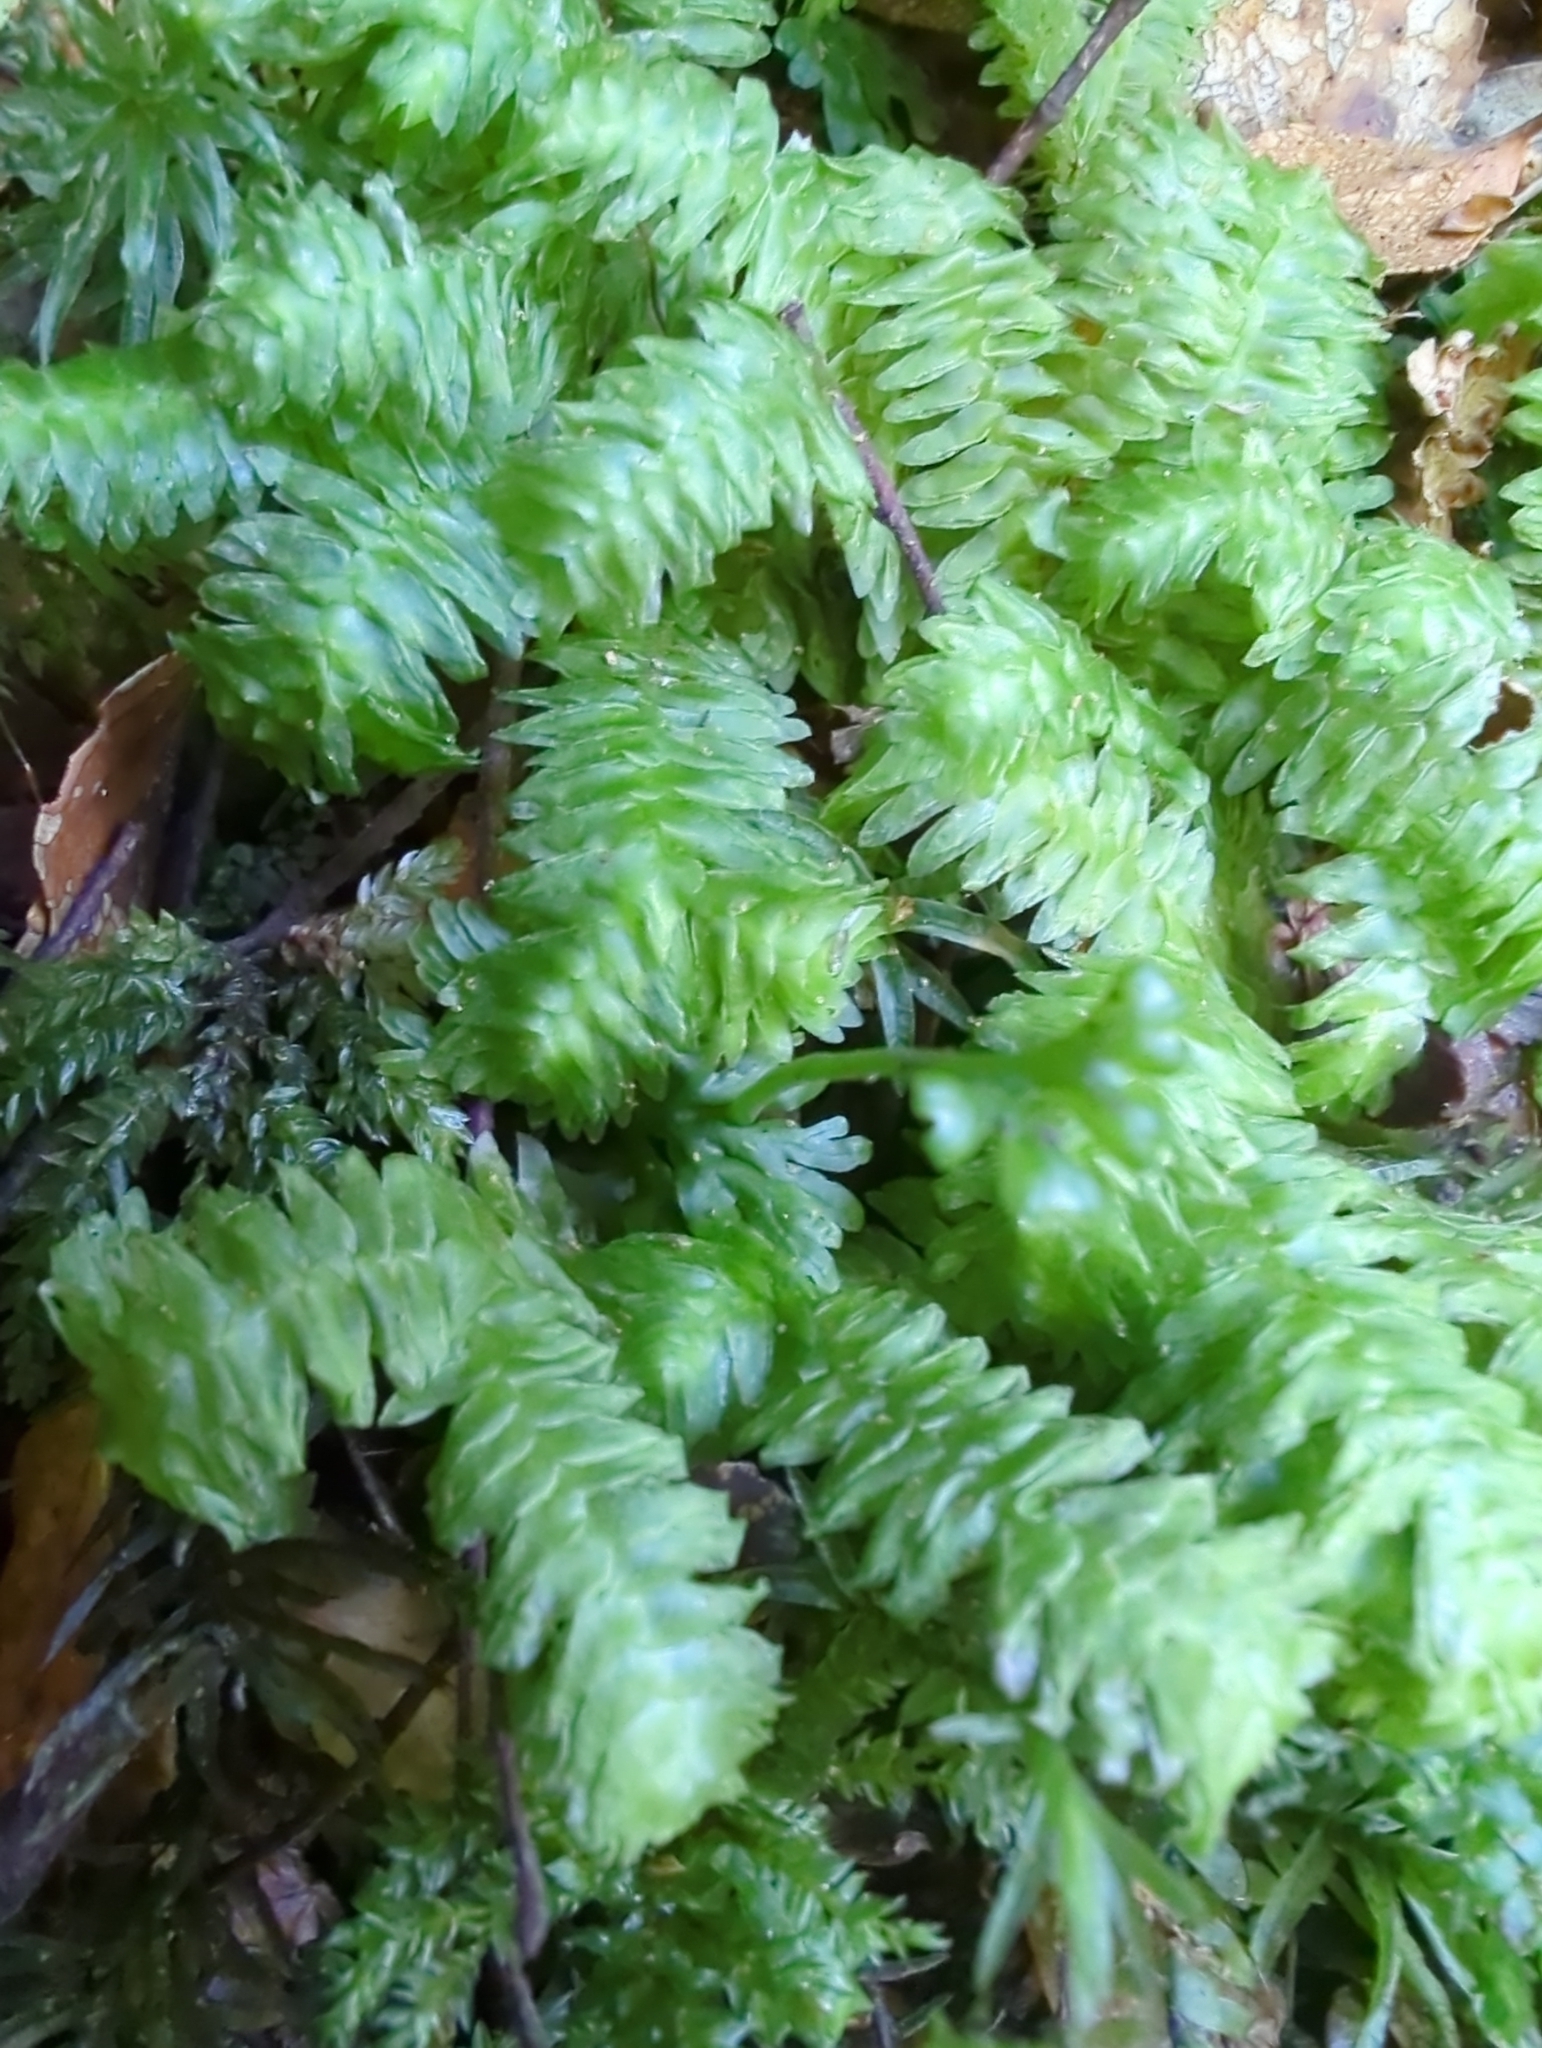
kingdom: Plantae
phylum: Marchantiophyta
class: Jungermanniopsida
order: Jungermanniales
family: Schistochilaceae
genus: Schistochila
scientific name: Schistochila lehmanniana
